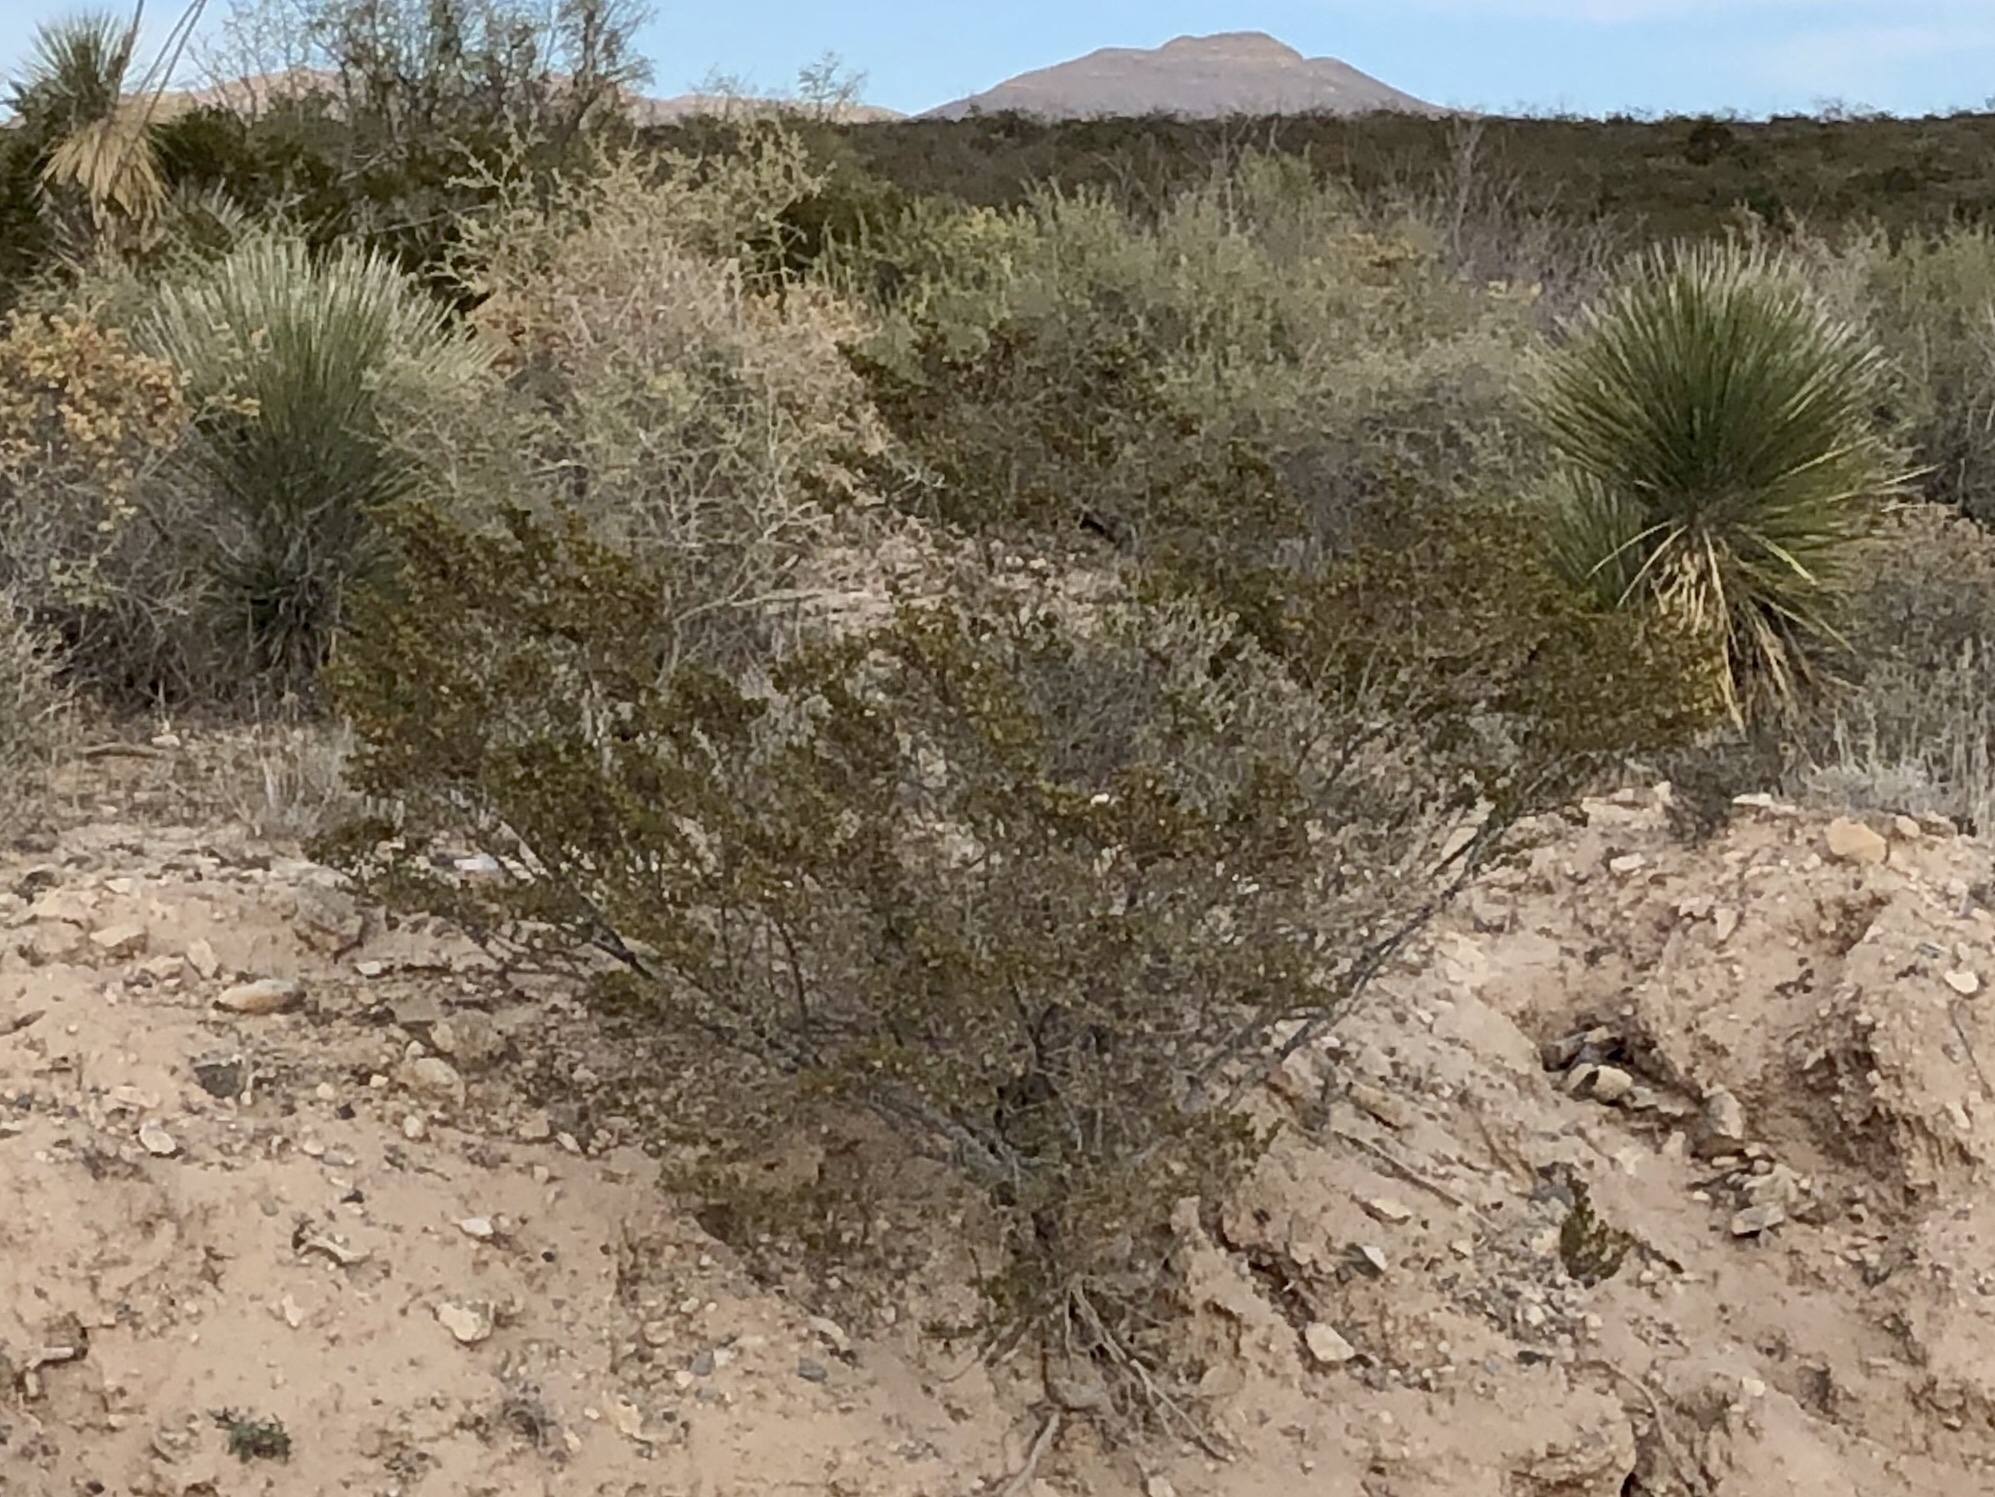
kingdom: Plantae
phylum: Tracheophyta
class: Magnoliopsida
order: Zygophyllales
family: Zygophyllaceae
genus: Larrea
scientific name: Larrea tridentata
